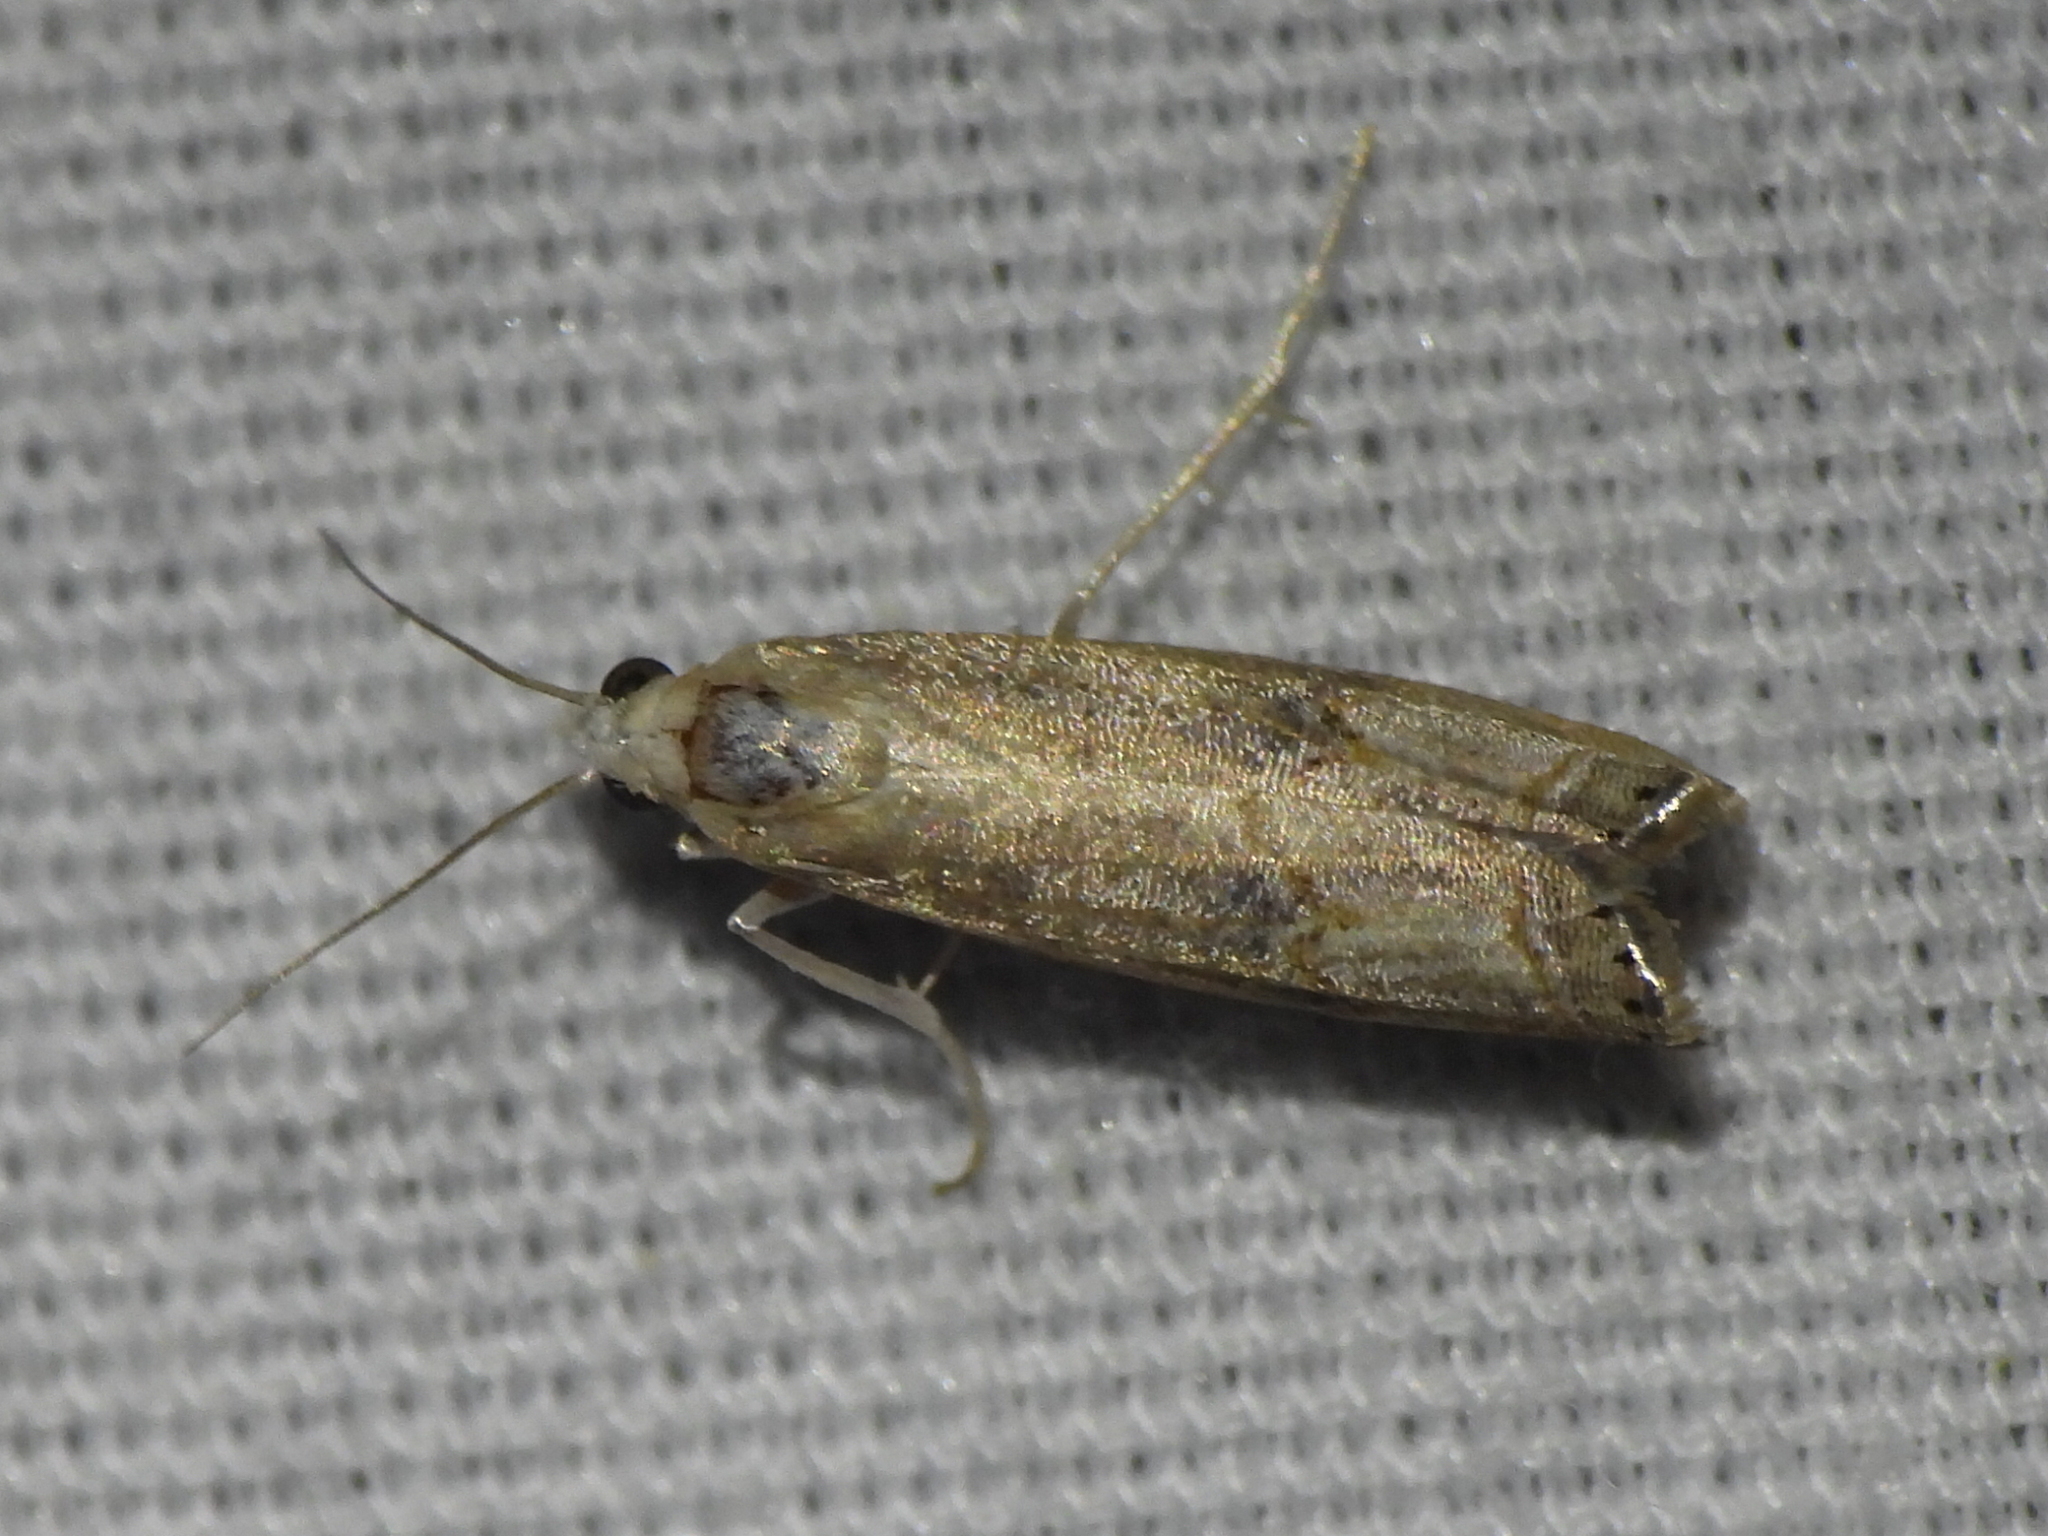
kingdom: Animalia
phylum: Arthropoda
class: Insecta
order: Lepidoptera
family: Crambidae
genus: Parapediasia
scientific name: Parapediasia teterellus
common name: Bluegrass webworm moth
